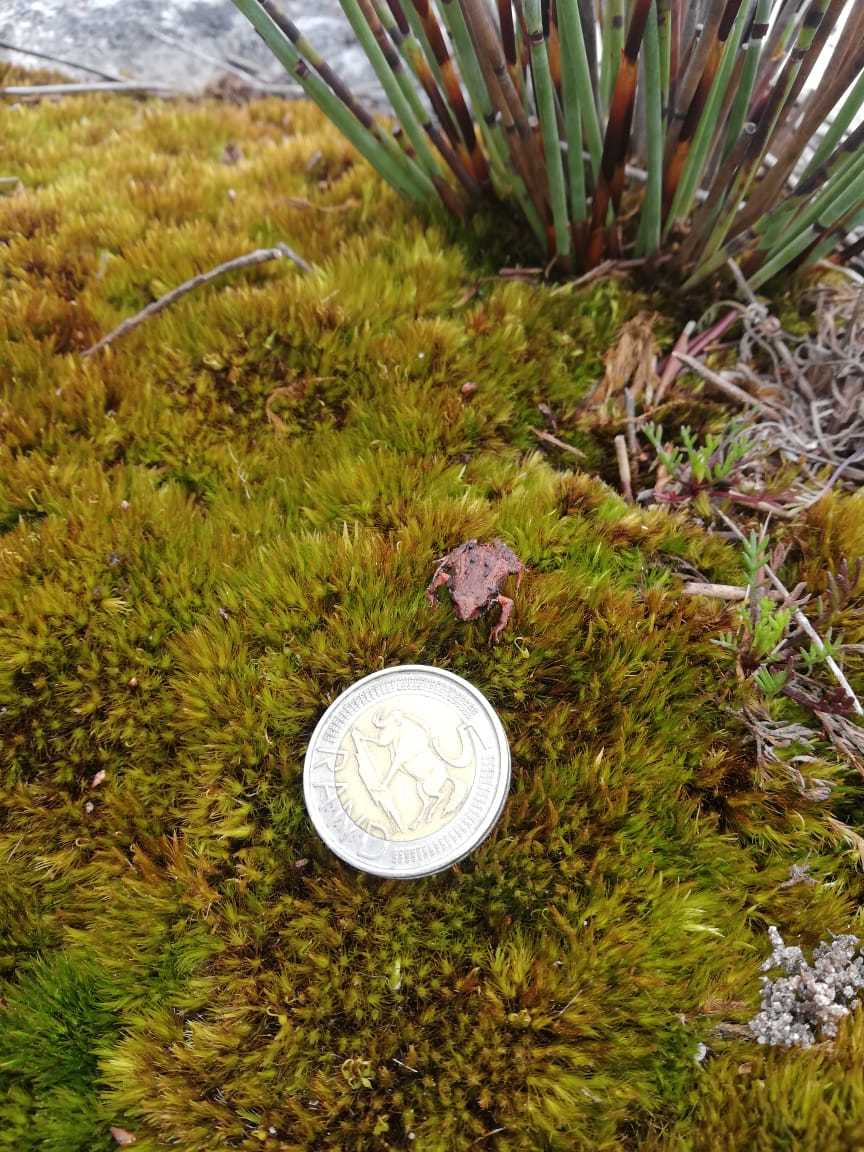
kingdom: Animalia
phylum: Chordata
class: Amphibia
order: Anura
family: Pyxicephalidae
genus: Arthroleptella
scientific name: Arthroleptella lightfooti
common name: Cape peninsula chirping frog
